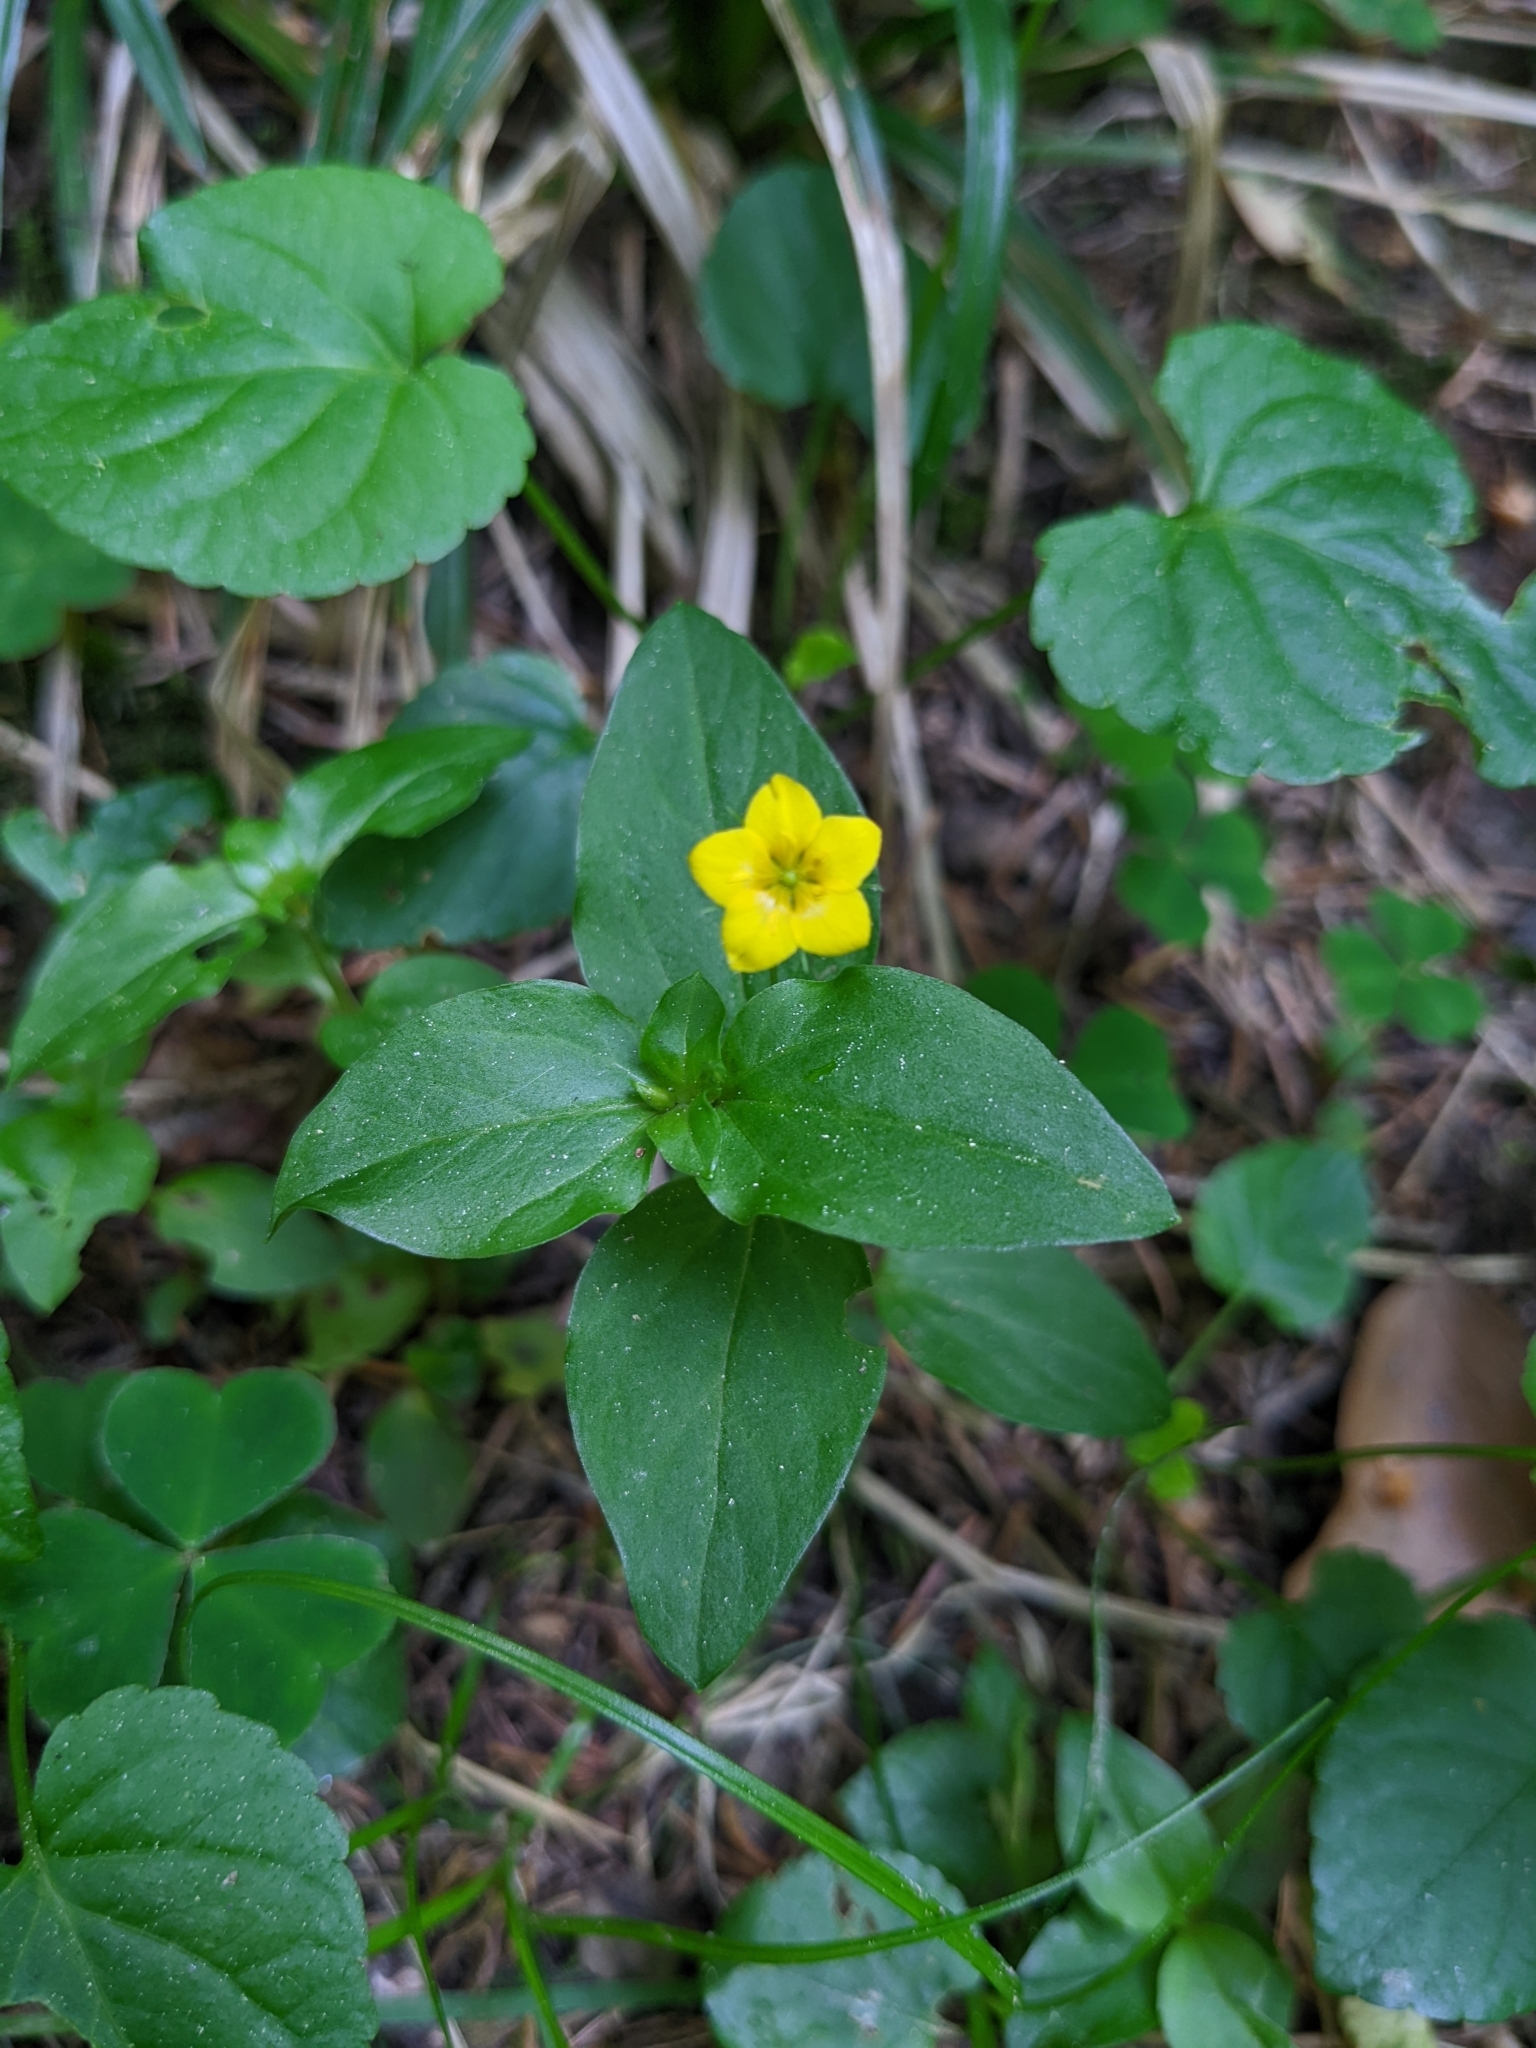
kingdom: Plantae
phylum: Tracheophyta
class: Magnoliopsida
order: Ericales
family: Primulaceae
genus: Lysimachia
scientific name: Lysimachia nemorum
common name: Yellow pimpernel
